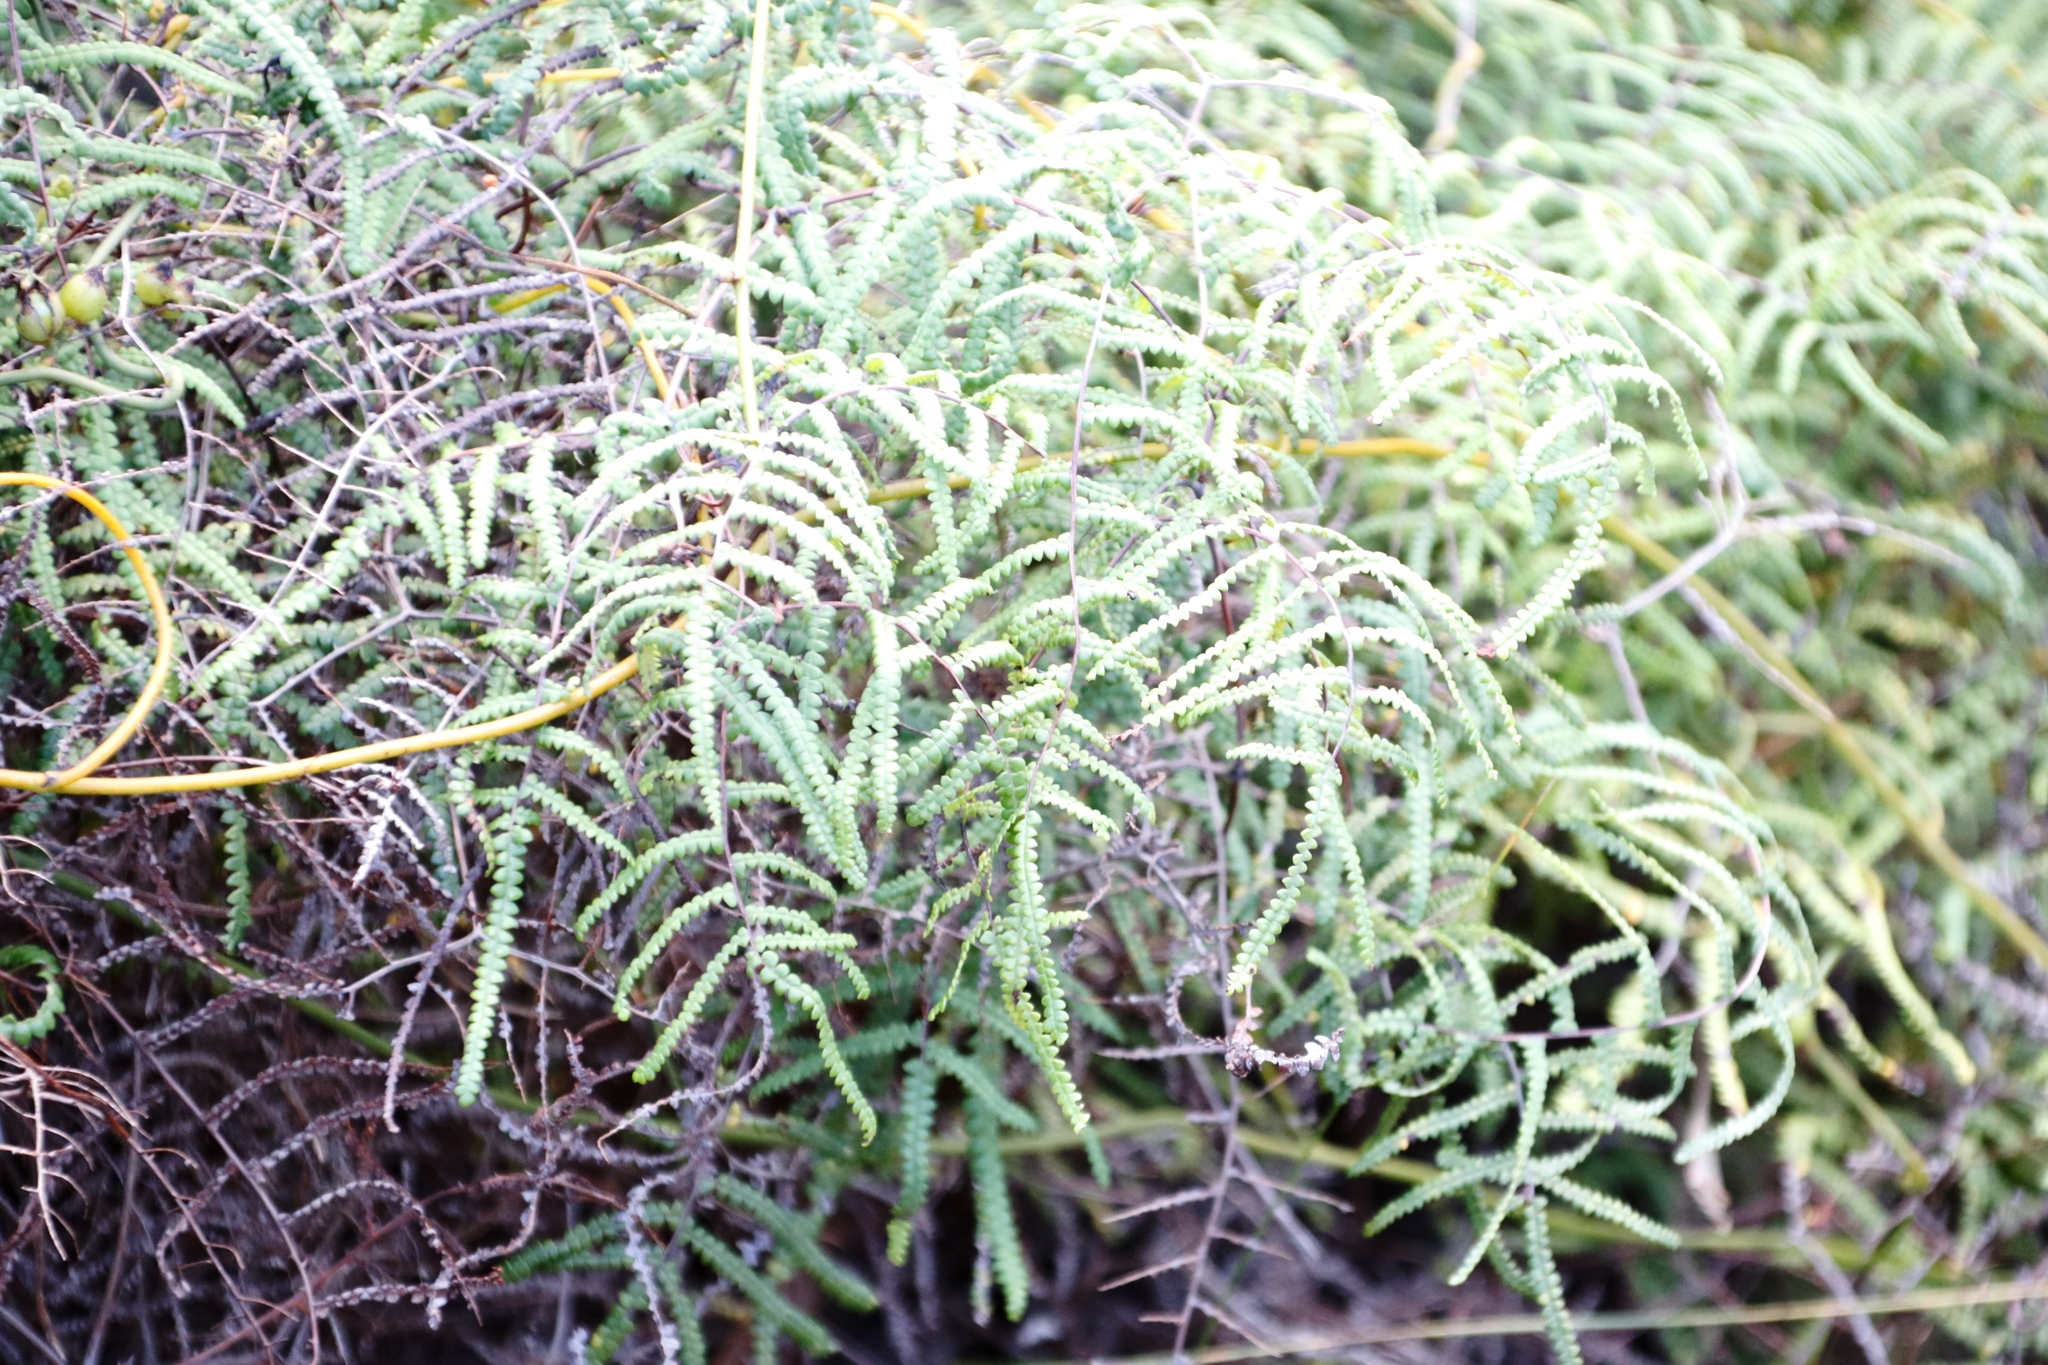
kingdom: Plantae
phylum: Tracheophyta
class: Polypodiopsida
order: Gleicheniales
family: Gleicheniaceae
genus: Gleichenia
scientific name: Gleichenia polypodioides
